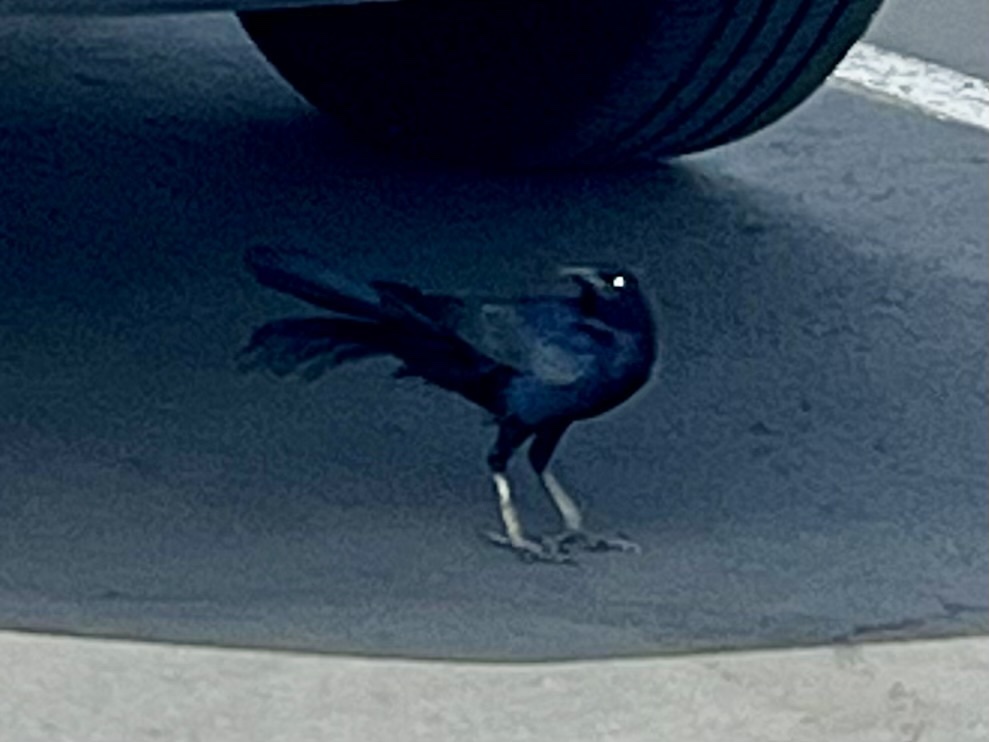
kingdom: Animalia
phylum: Chordata
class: Aves
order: Passeriformes
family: Icteridae
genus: Quiscalus
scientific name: Quiscalus mexicanus
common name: Great-tailed grackle
